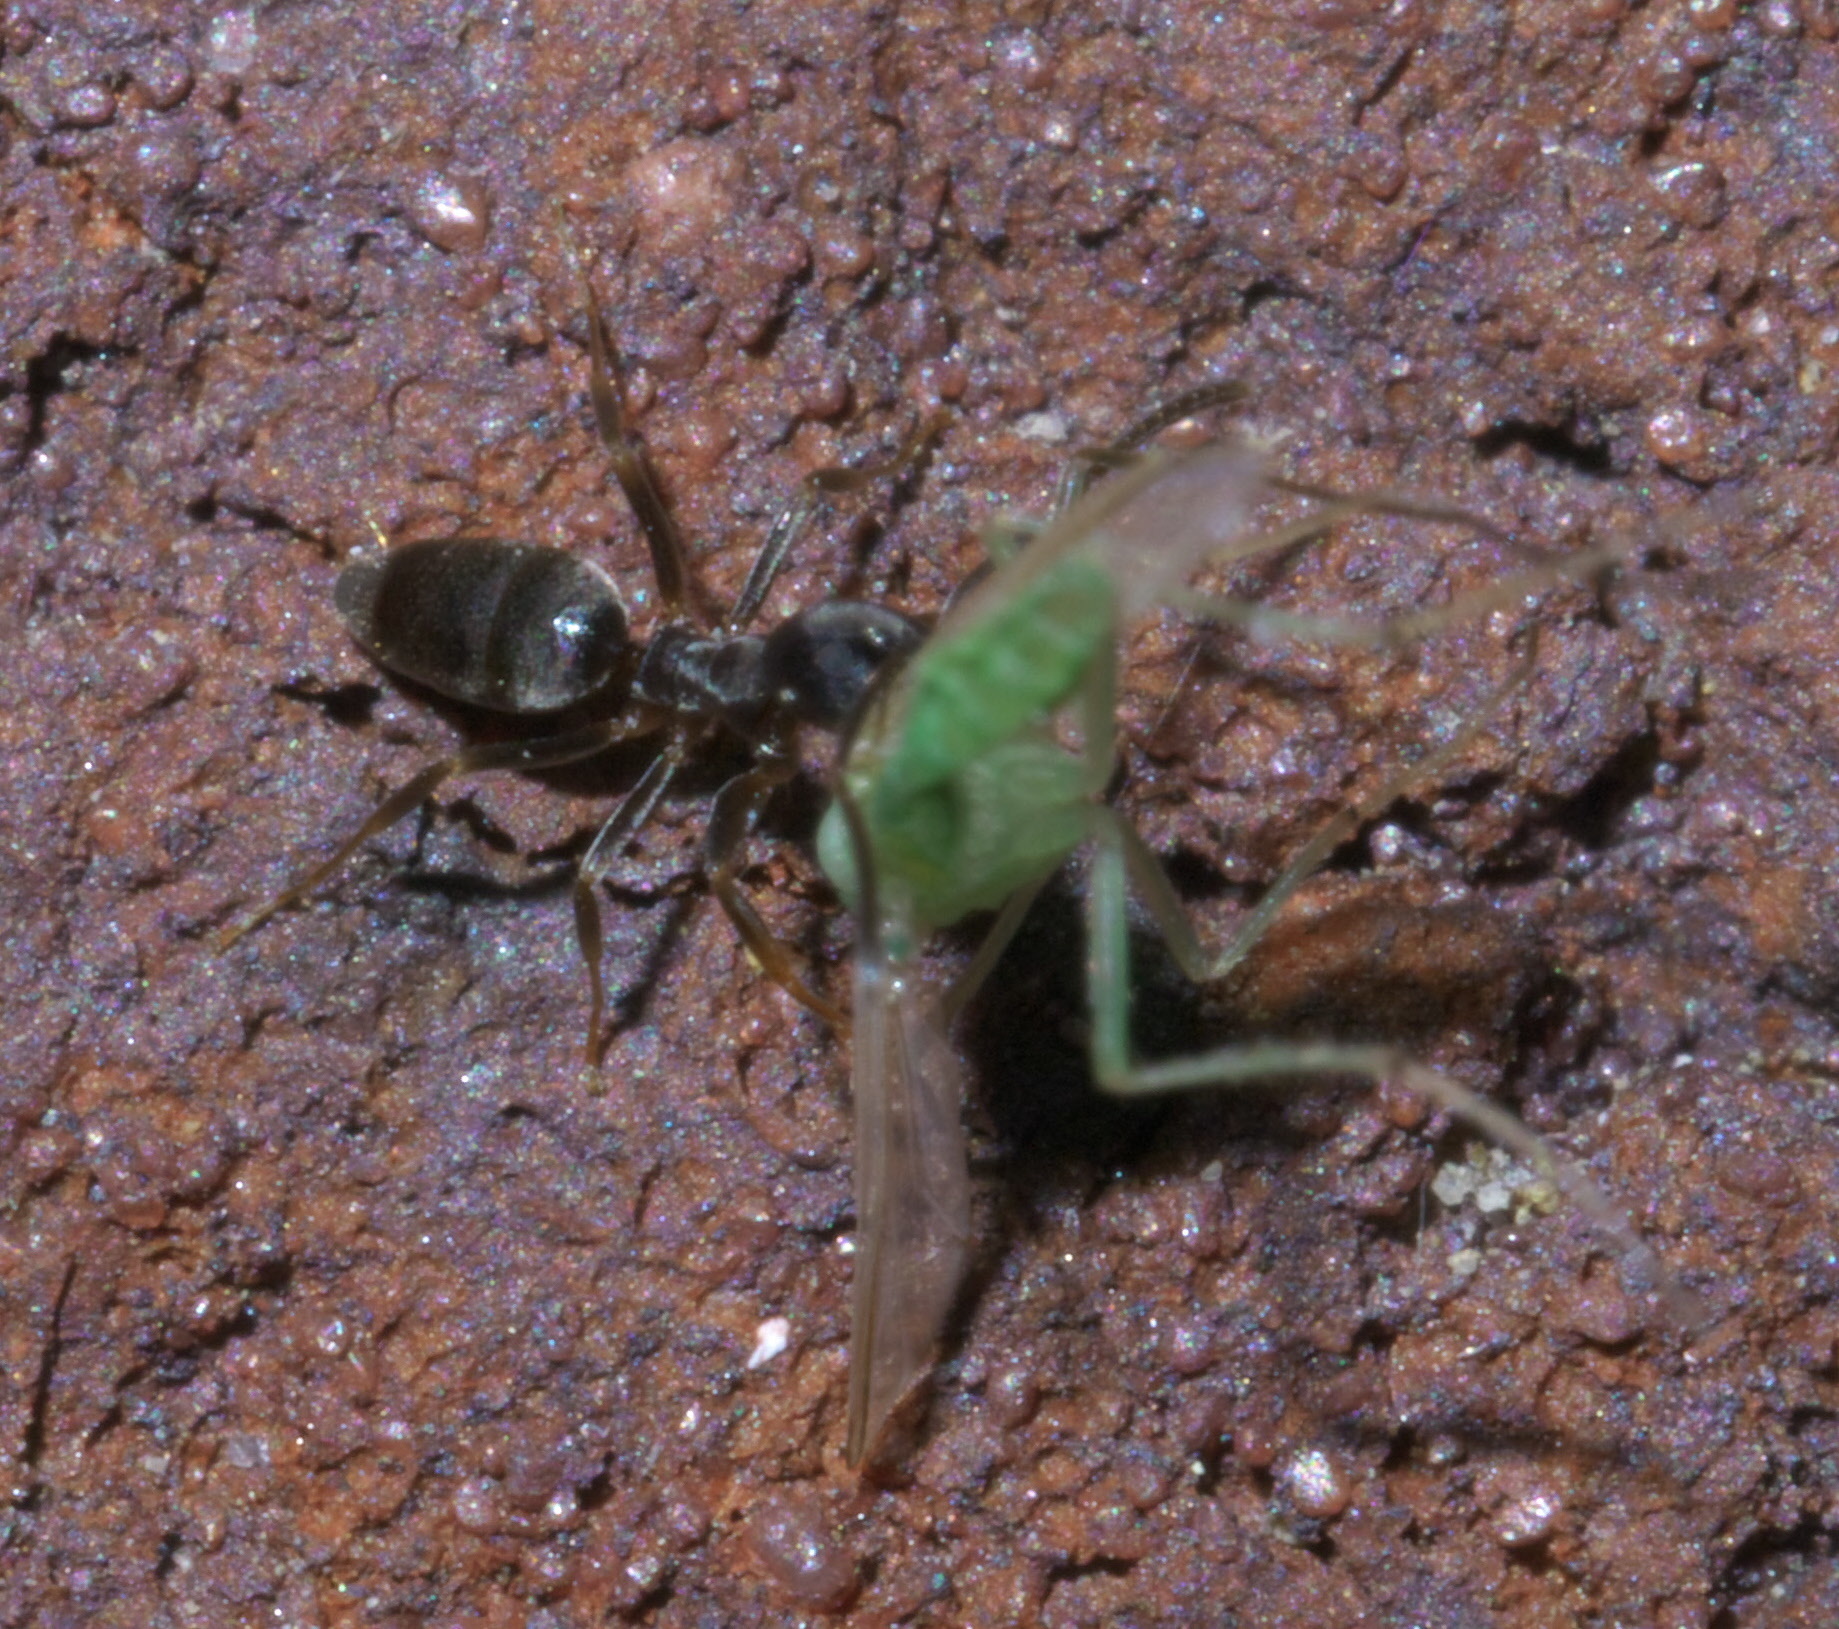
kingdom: Animalia
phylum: Arthropoda
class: Insecta
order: Hymenoptera
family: Formicidae
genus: Tapinoma
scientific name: Tapinoma sessile
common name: Odorous house ant
